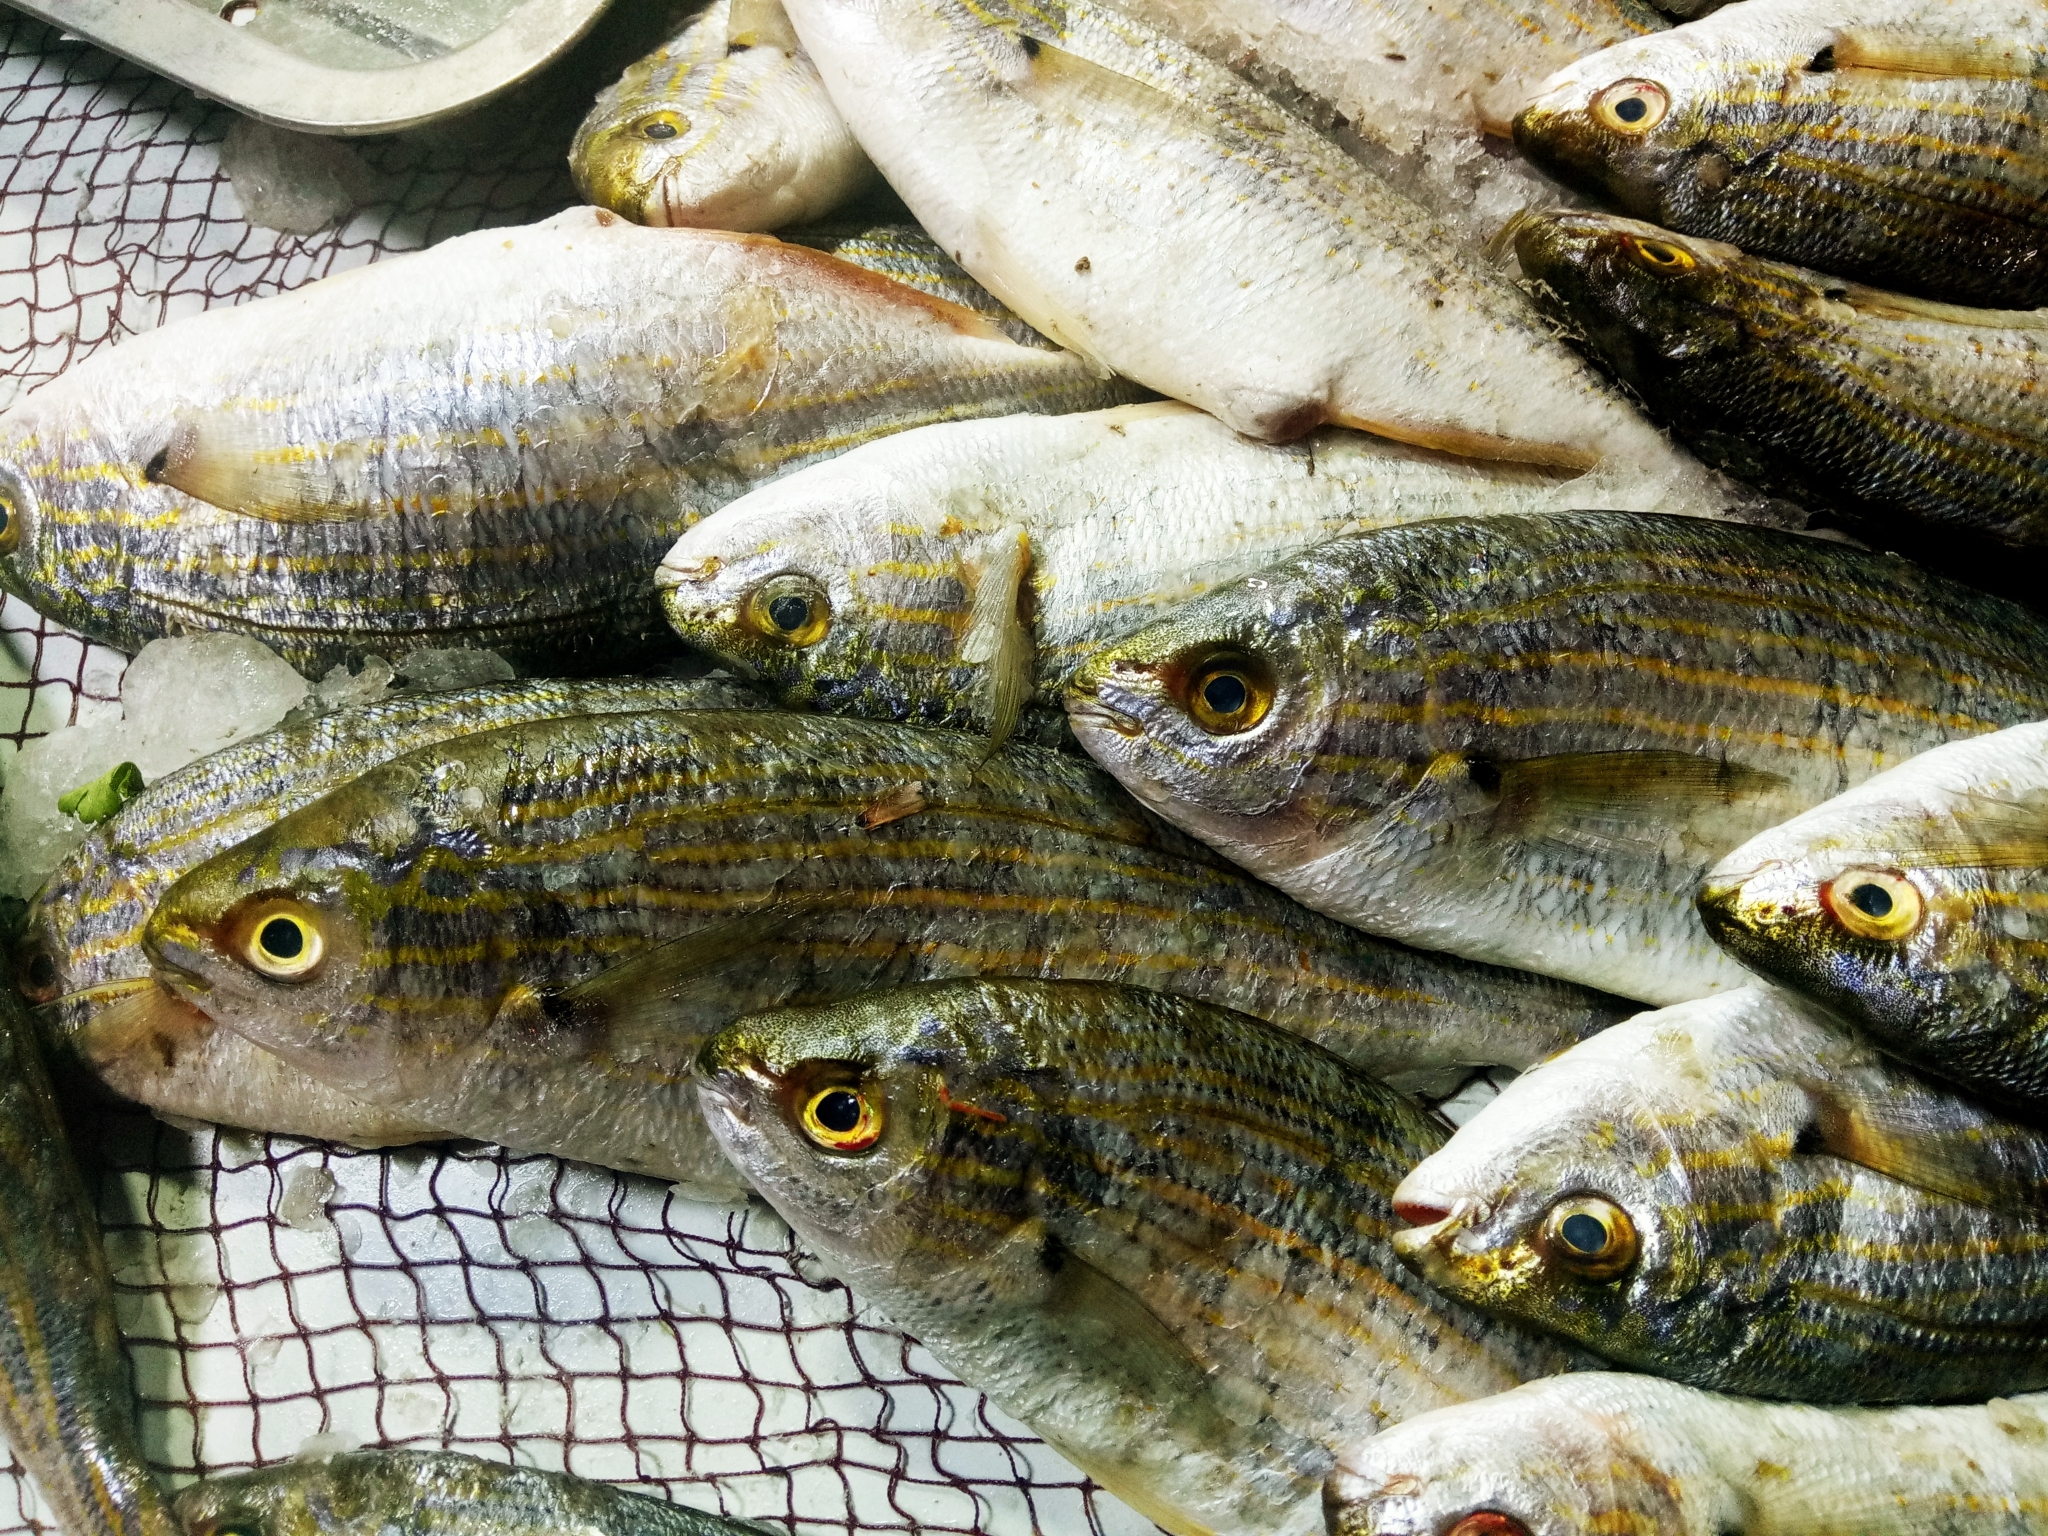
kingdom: Animalia
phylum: Chordata
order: Perciformes
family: Sparidae
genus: Sarpa
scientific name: Sarpa salpa
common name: Salema
